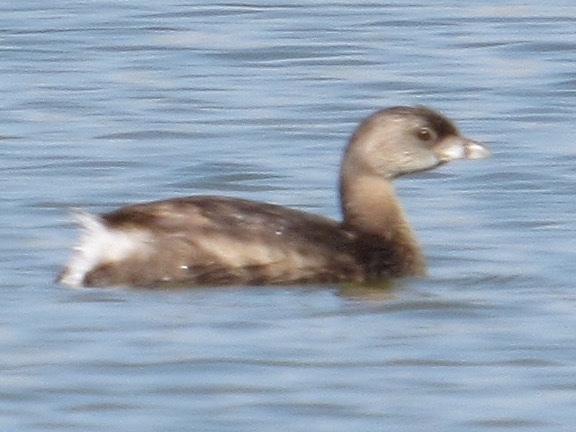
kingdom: Animalia
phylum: Chordata
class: Aves
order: Podicipediformes
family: Podicipedidae
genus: Podilymbus
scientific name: Podilymbus podiceps
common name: Pied-billed grebe
